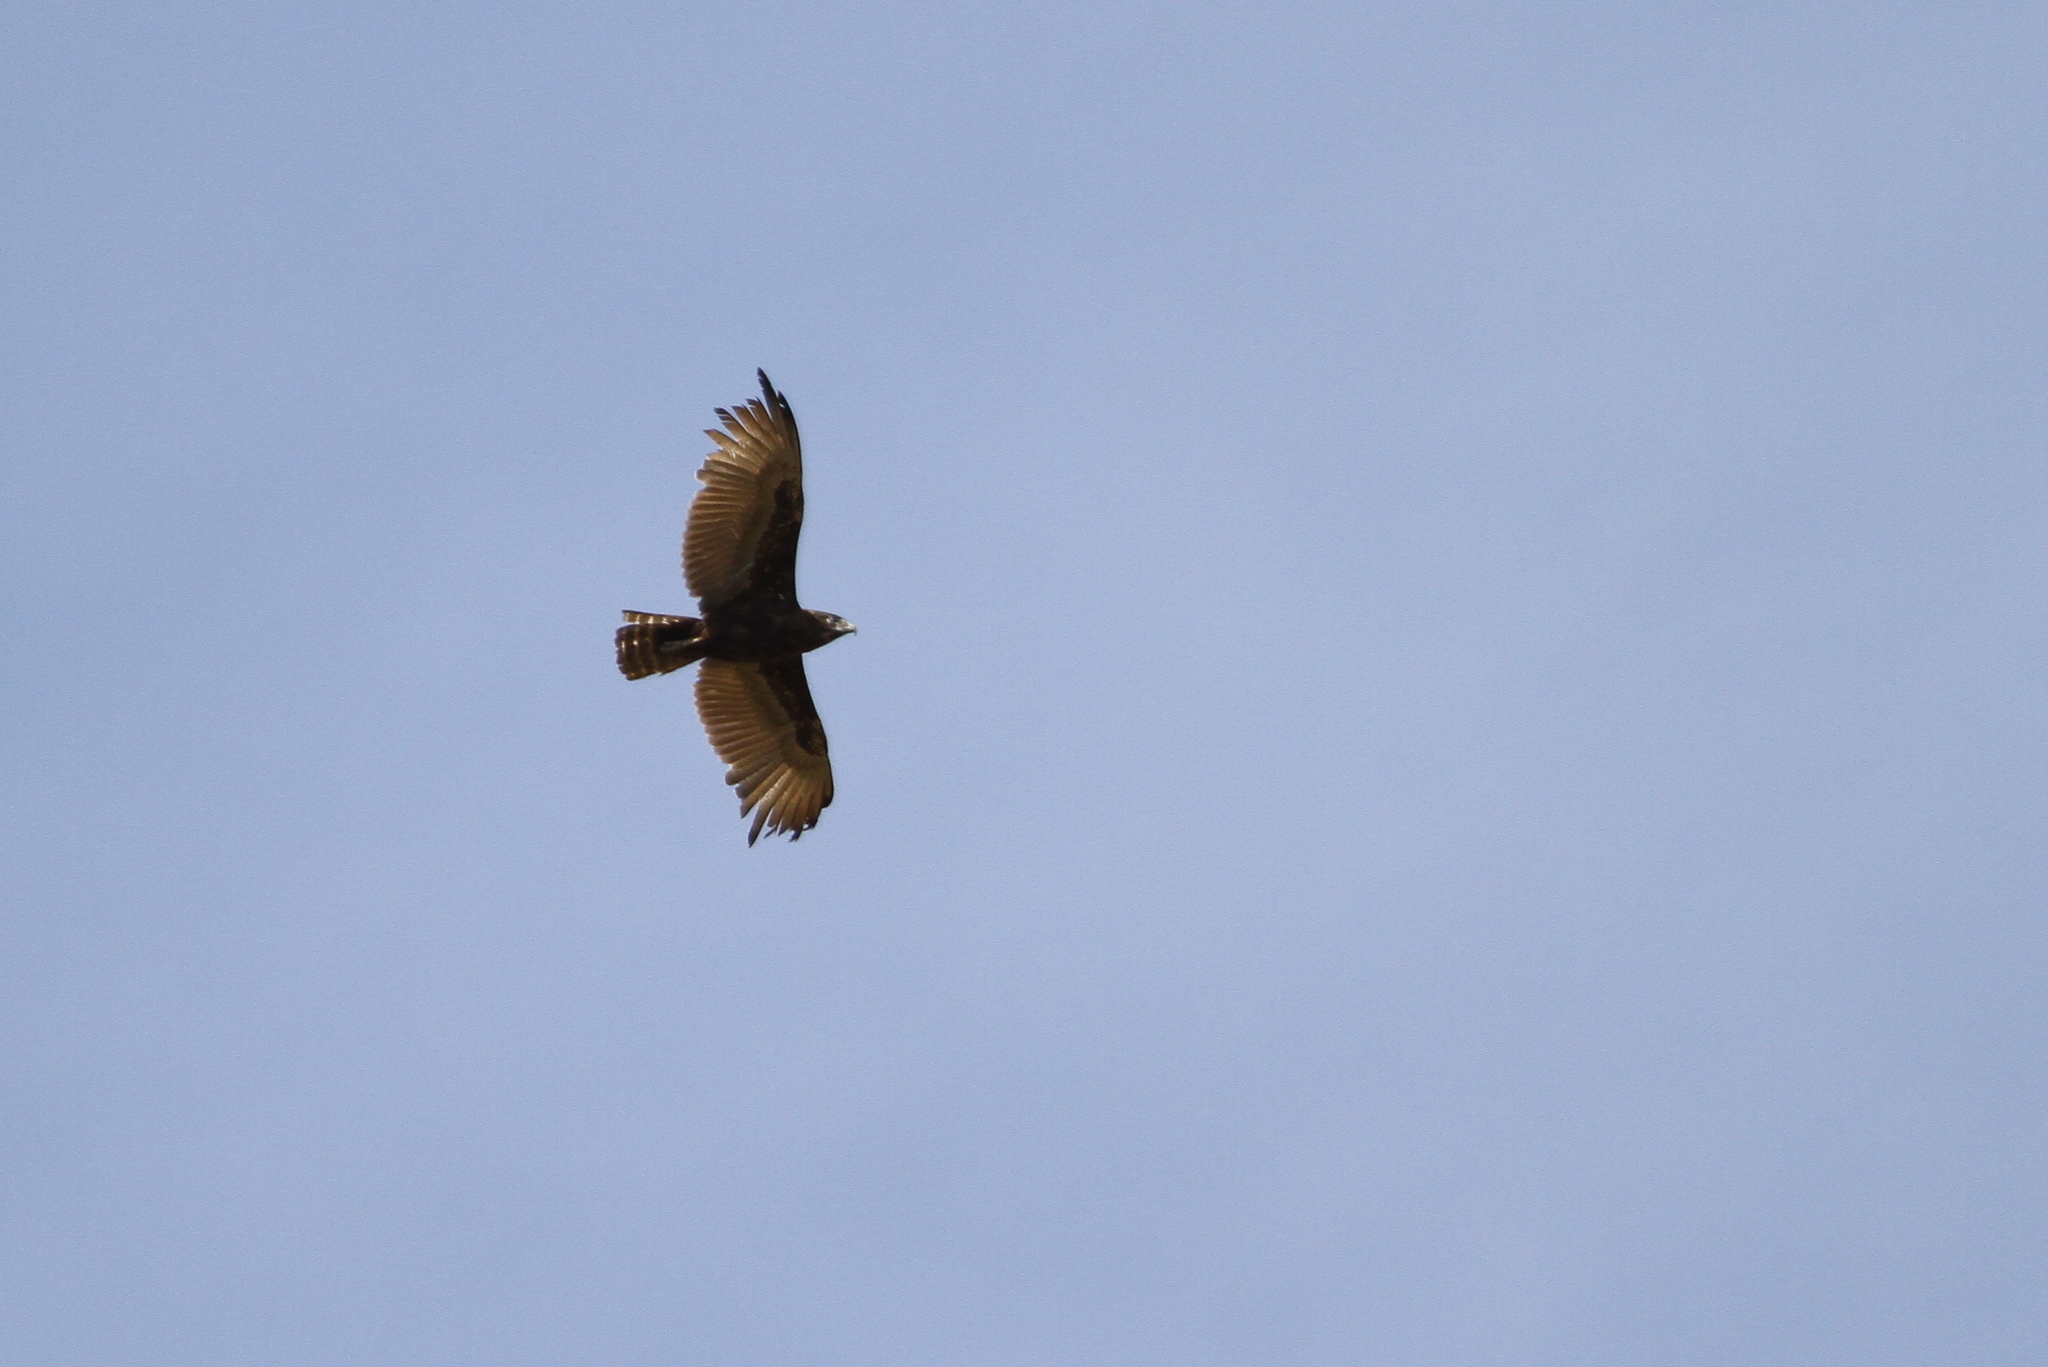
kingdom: Animalia
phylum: Chordata
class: Aves
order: Accipitriformes
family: Accipitridae
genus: Circaetus
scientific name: Circaetus cinereus
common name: Brown snake eagle
